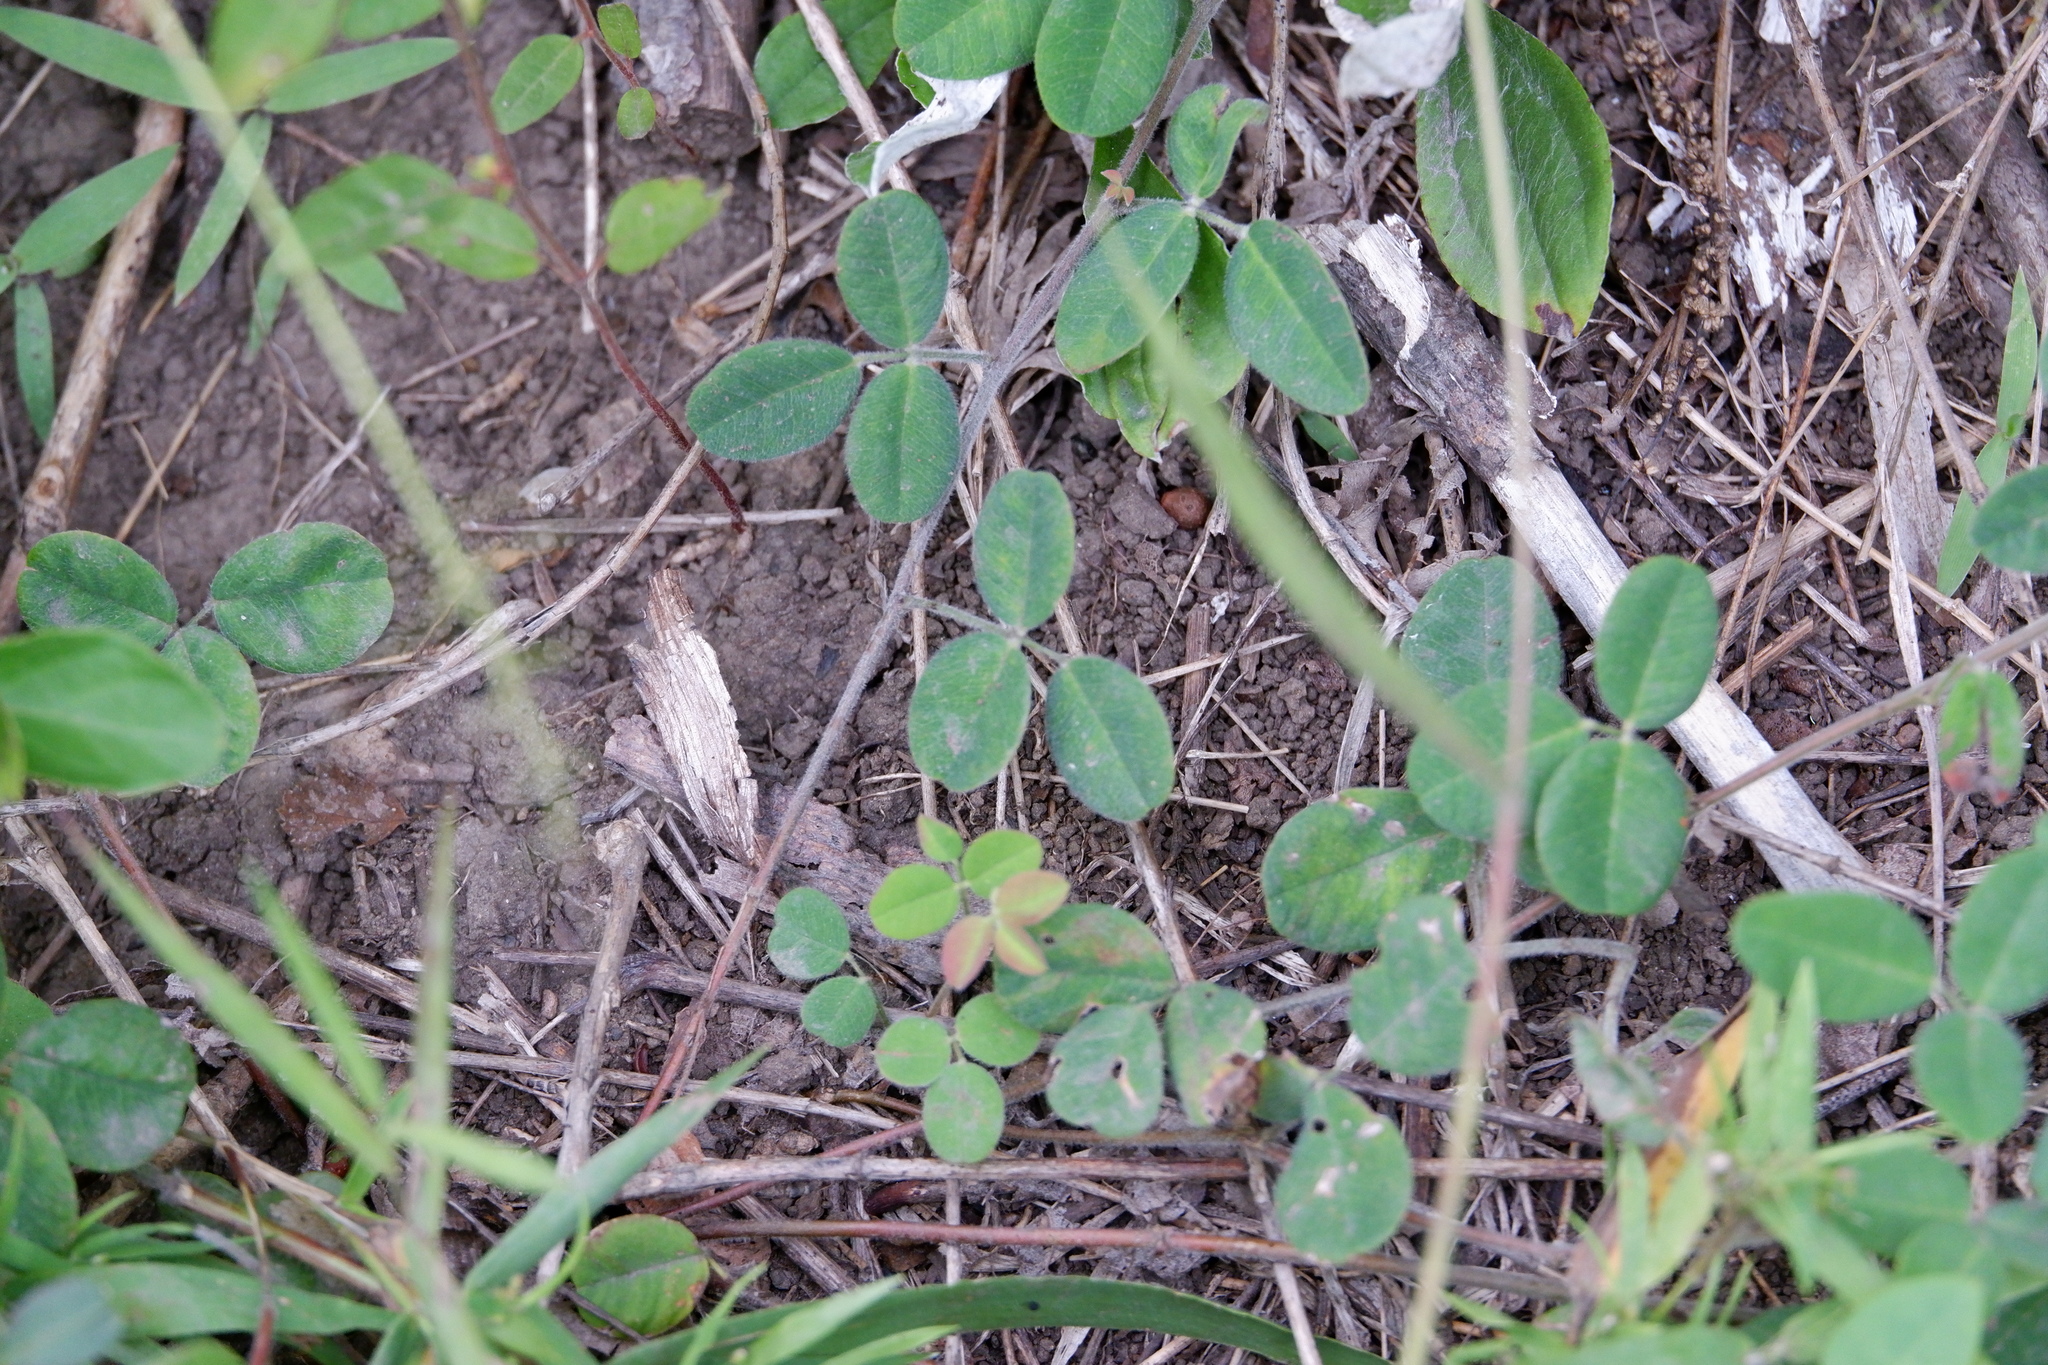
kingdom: Plantae
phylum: Tracheophyta
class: Magnoliopsida
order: Fabales
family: Fabaceae
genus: Lespedeza
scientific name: Lespedeza procumbens
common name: Downy trailing bush-clover
